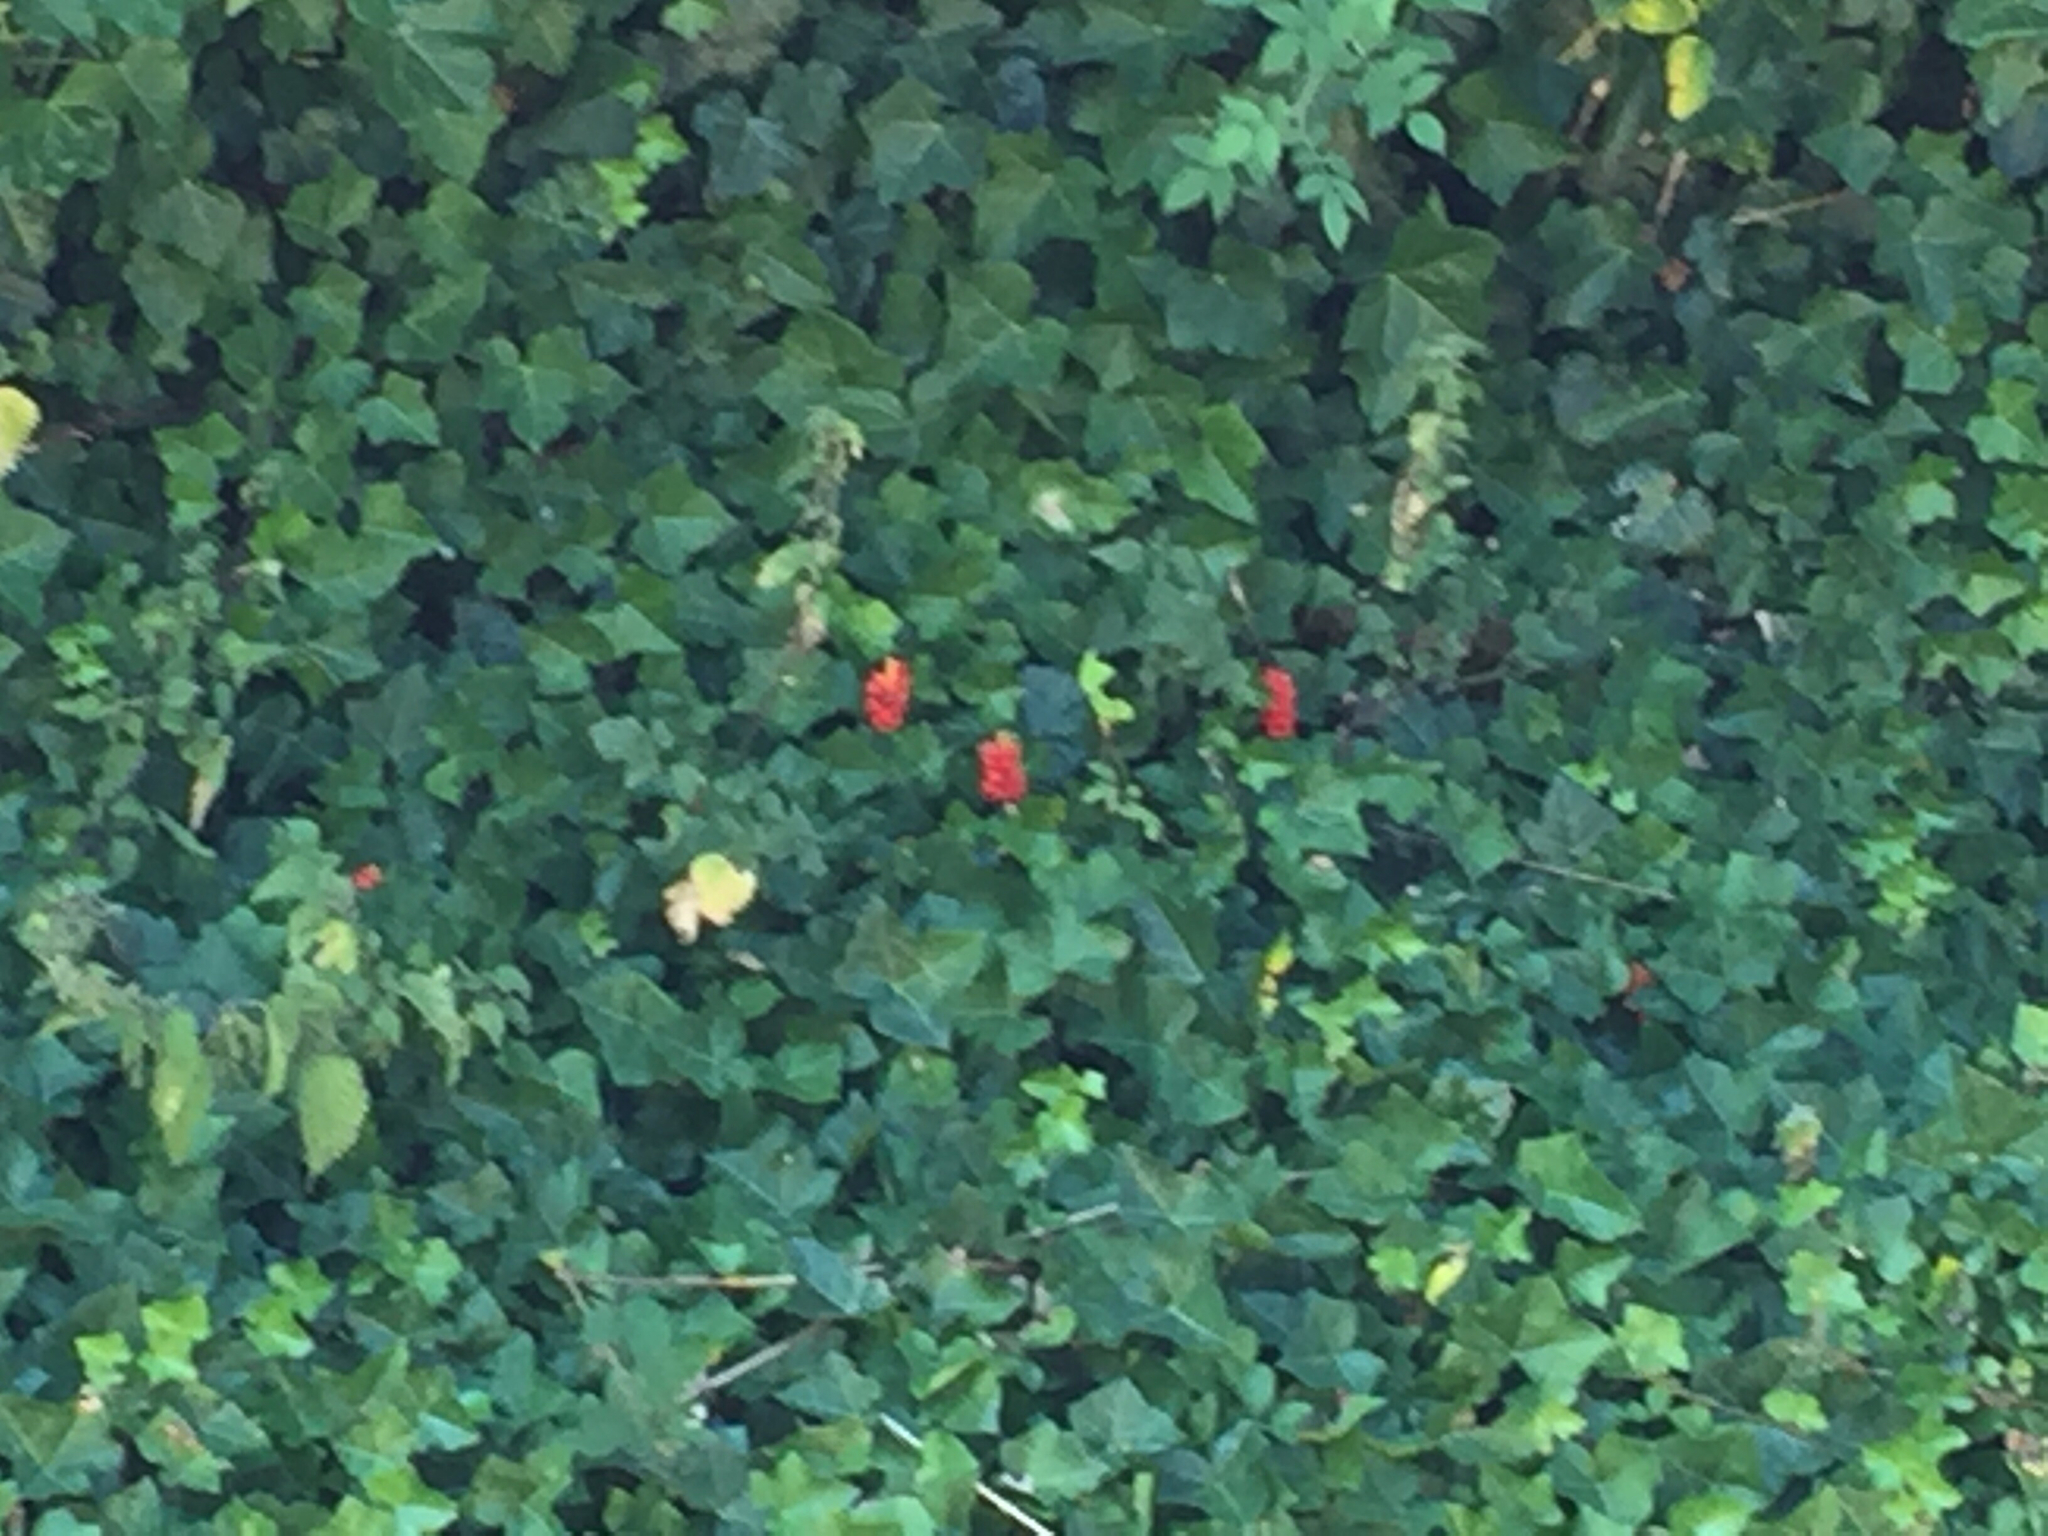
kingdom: Plantae
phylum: Tracheophyta
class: Liliopsida
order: Alismatales
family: Araceae
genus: Arum
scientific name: Arum maculatum
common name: Lords-and-ladies
